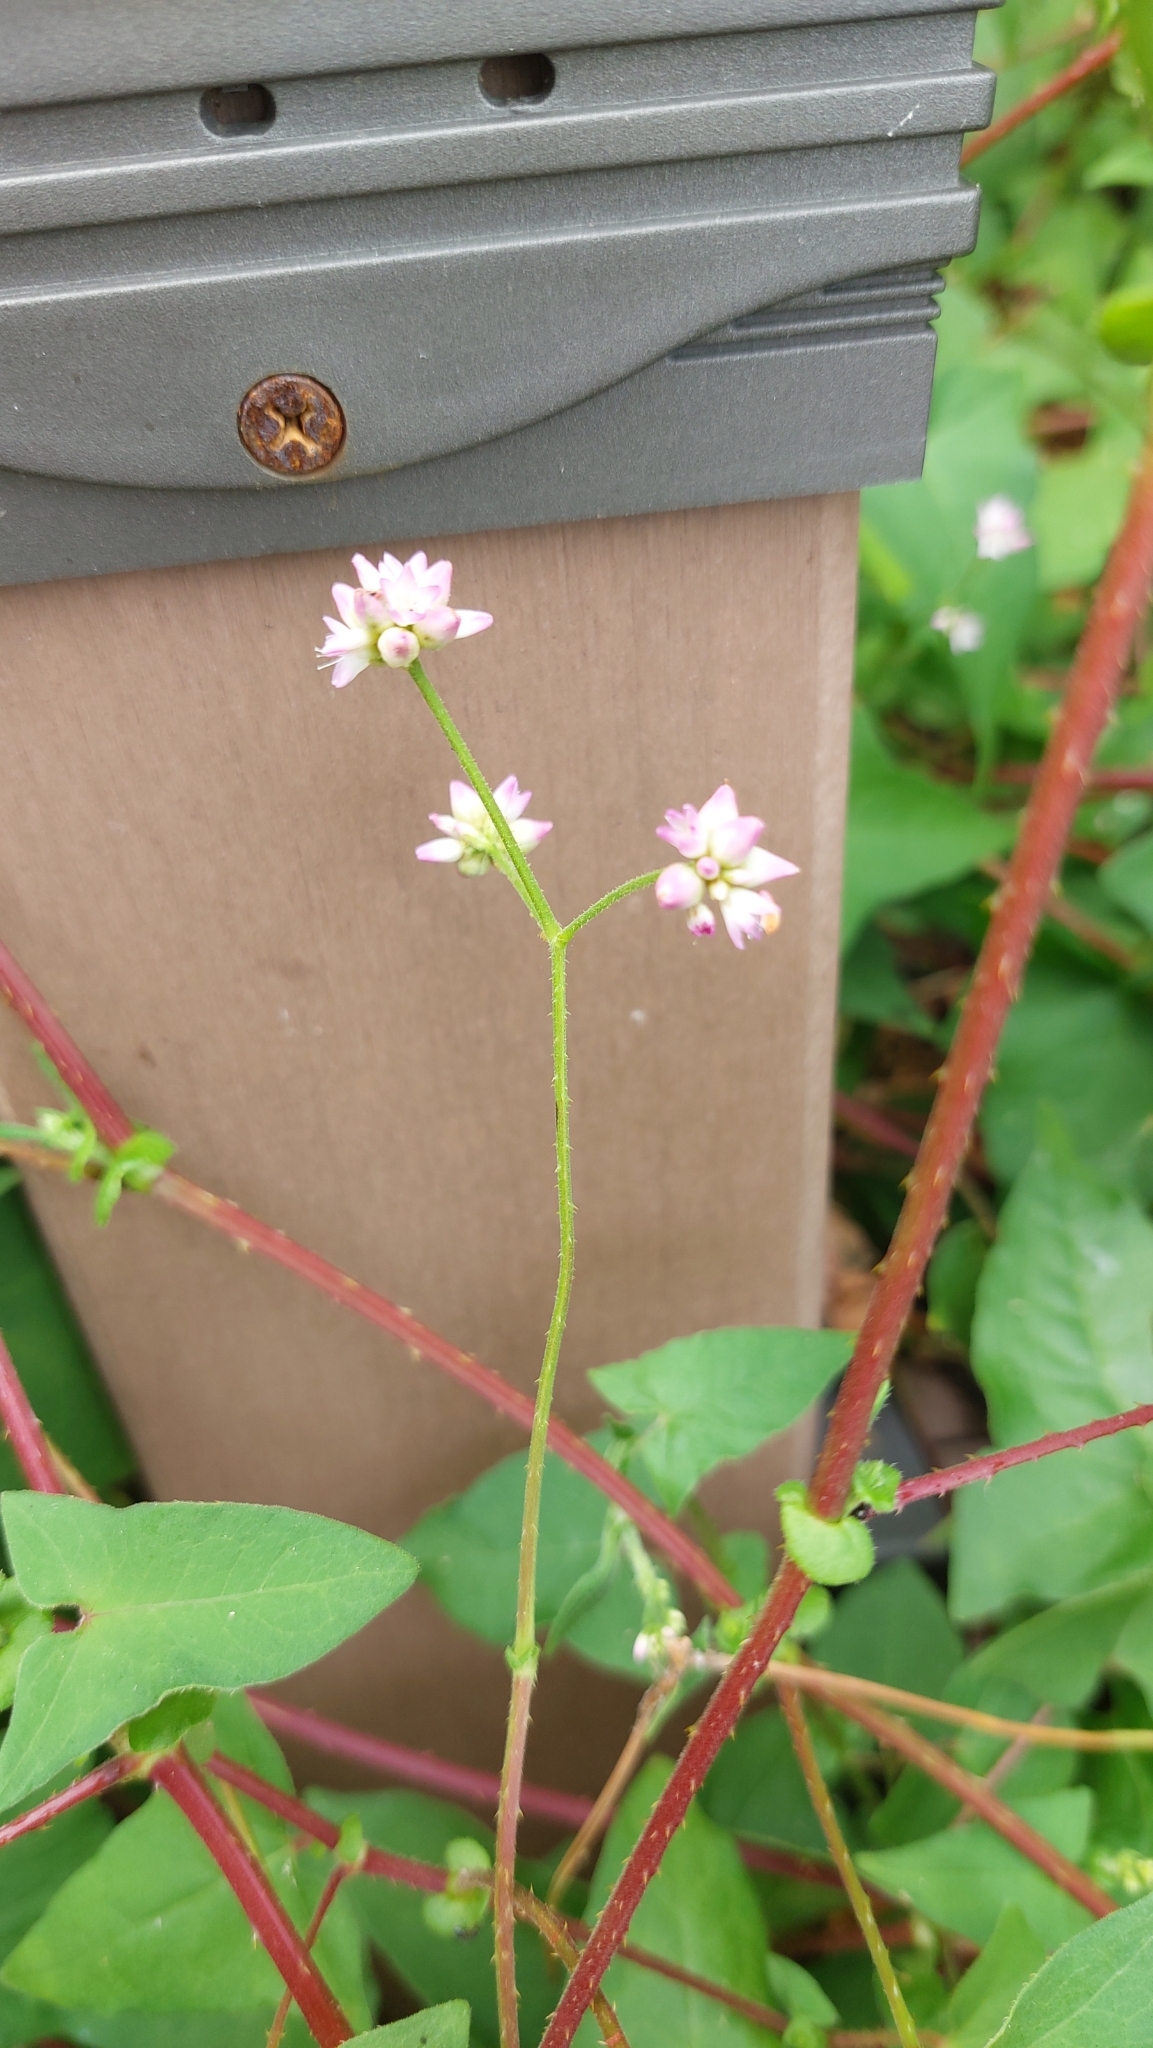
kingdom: Plantae
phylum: Tracheophyta
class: Magnoliopsida
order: Caryophyllales
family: Polygonaceae
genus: Persicaria
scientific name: Persicaria senticosa
